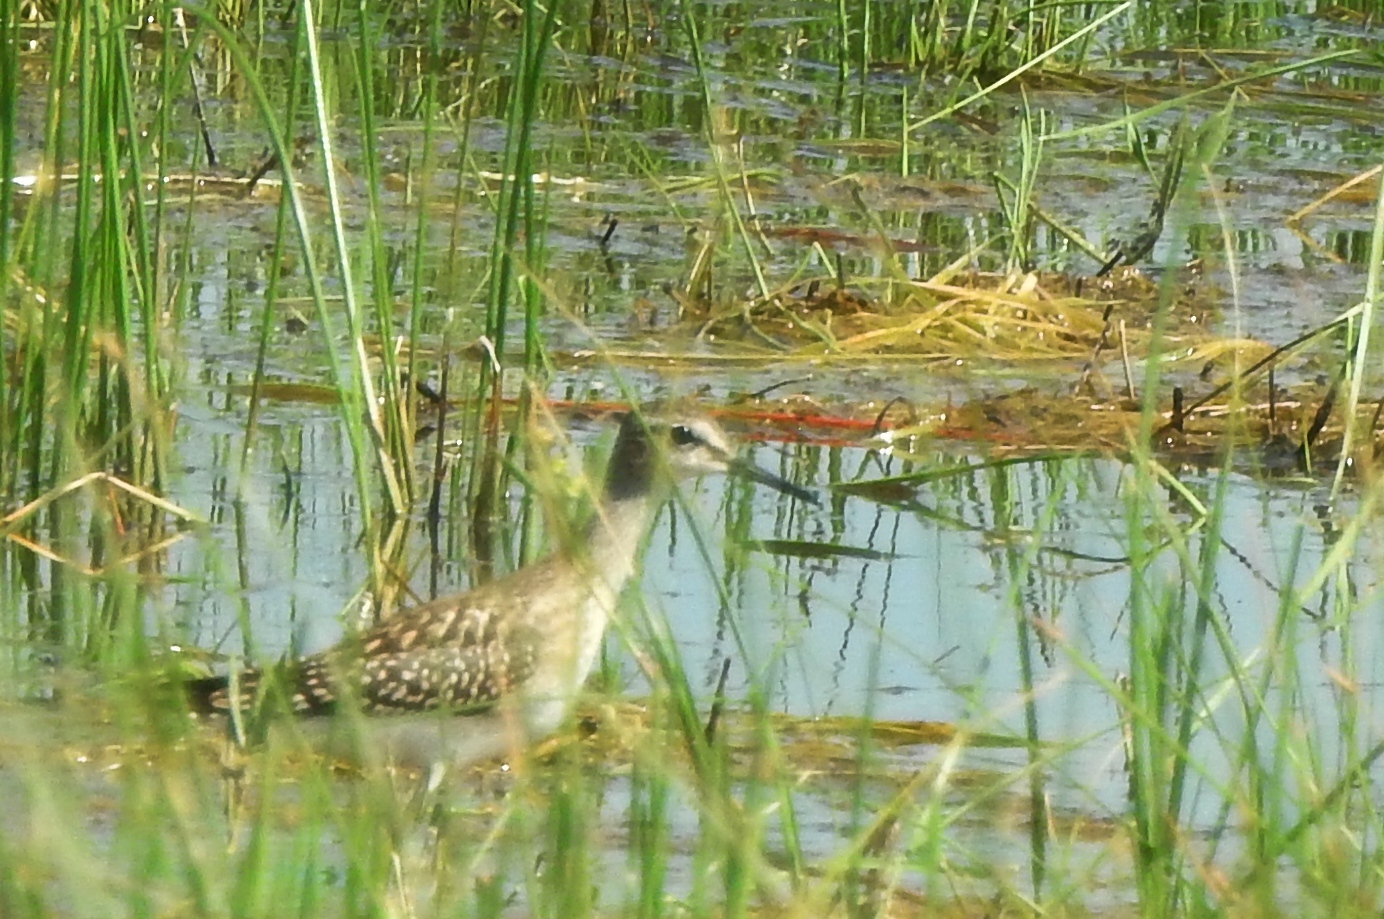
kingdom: Animalia
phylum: Chordata
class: Aves
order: Charadriiformes
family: Scolopacidae
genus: Tringa
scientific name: Tringa glareola
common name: Wood sandpiper
